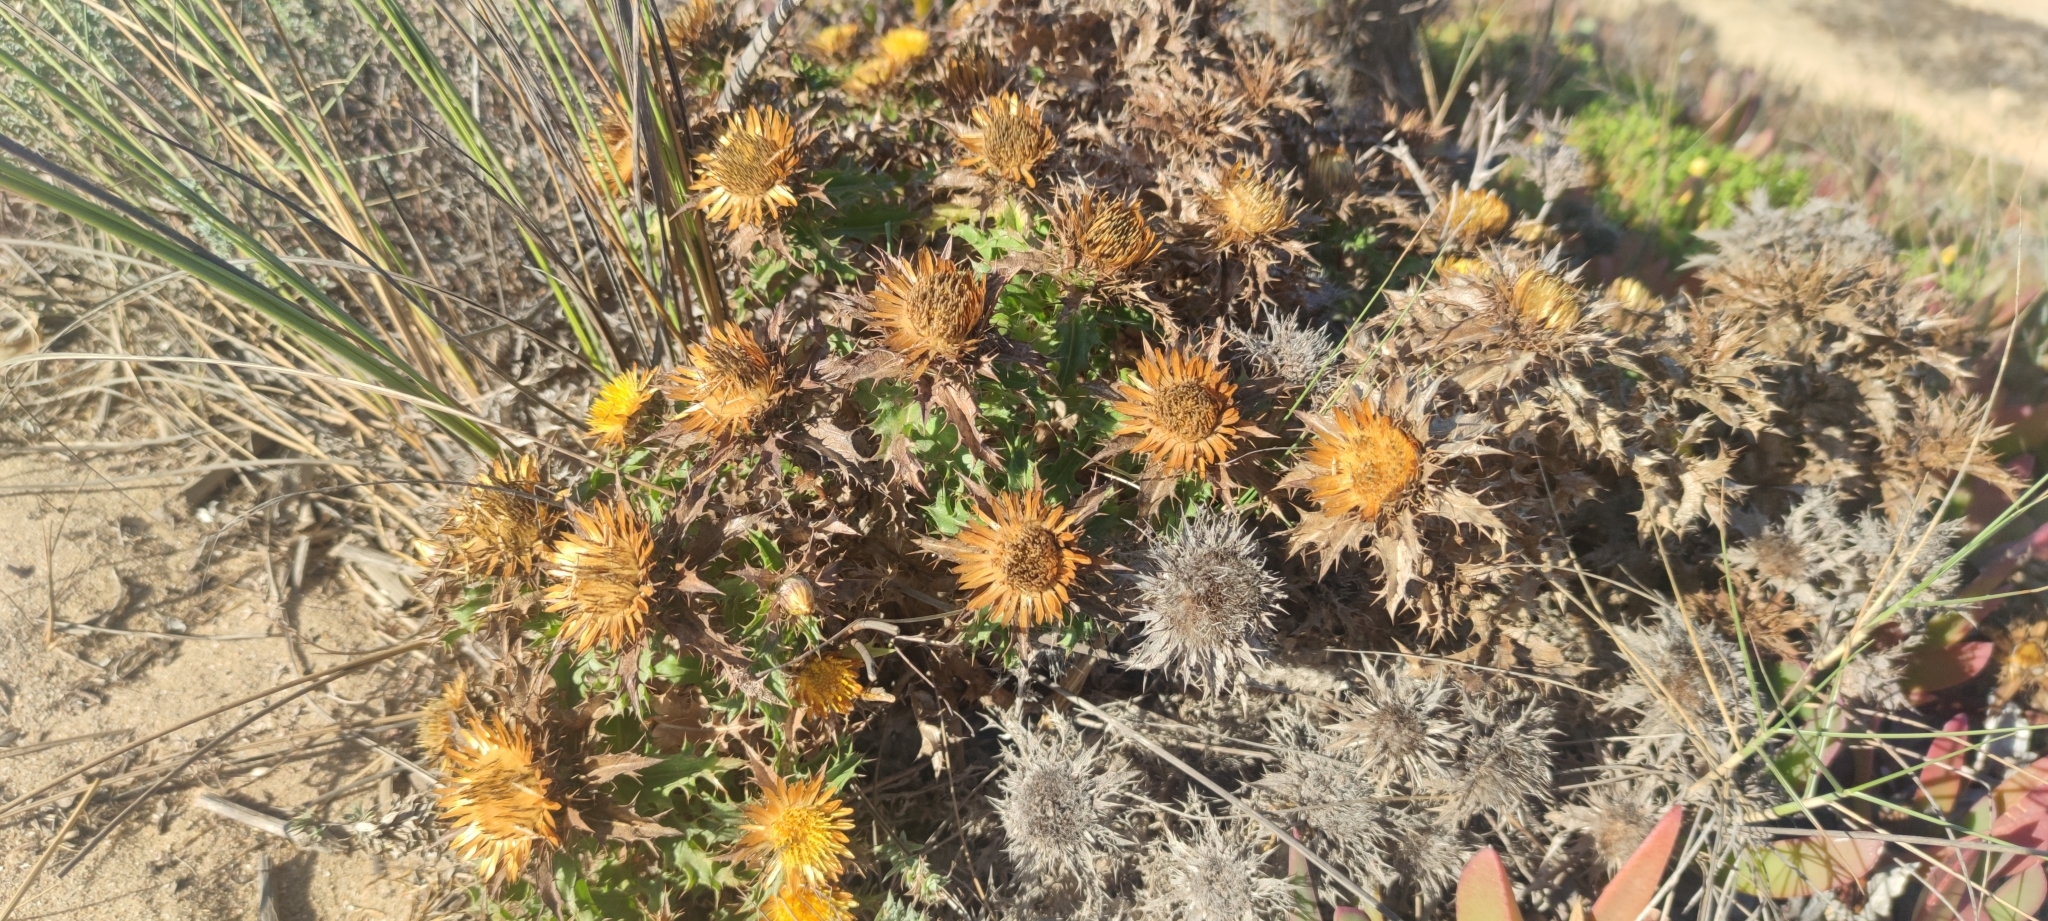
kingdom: Plantae
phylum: Tracheophyta
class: Magnoliopsida
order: Asterales
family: Asteraceae
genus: Carlina
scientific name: Carlina hispanica
